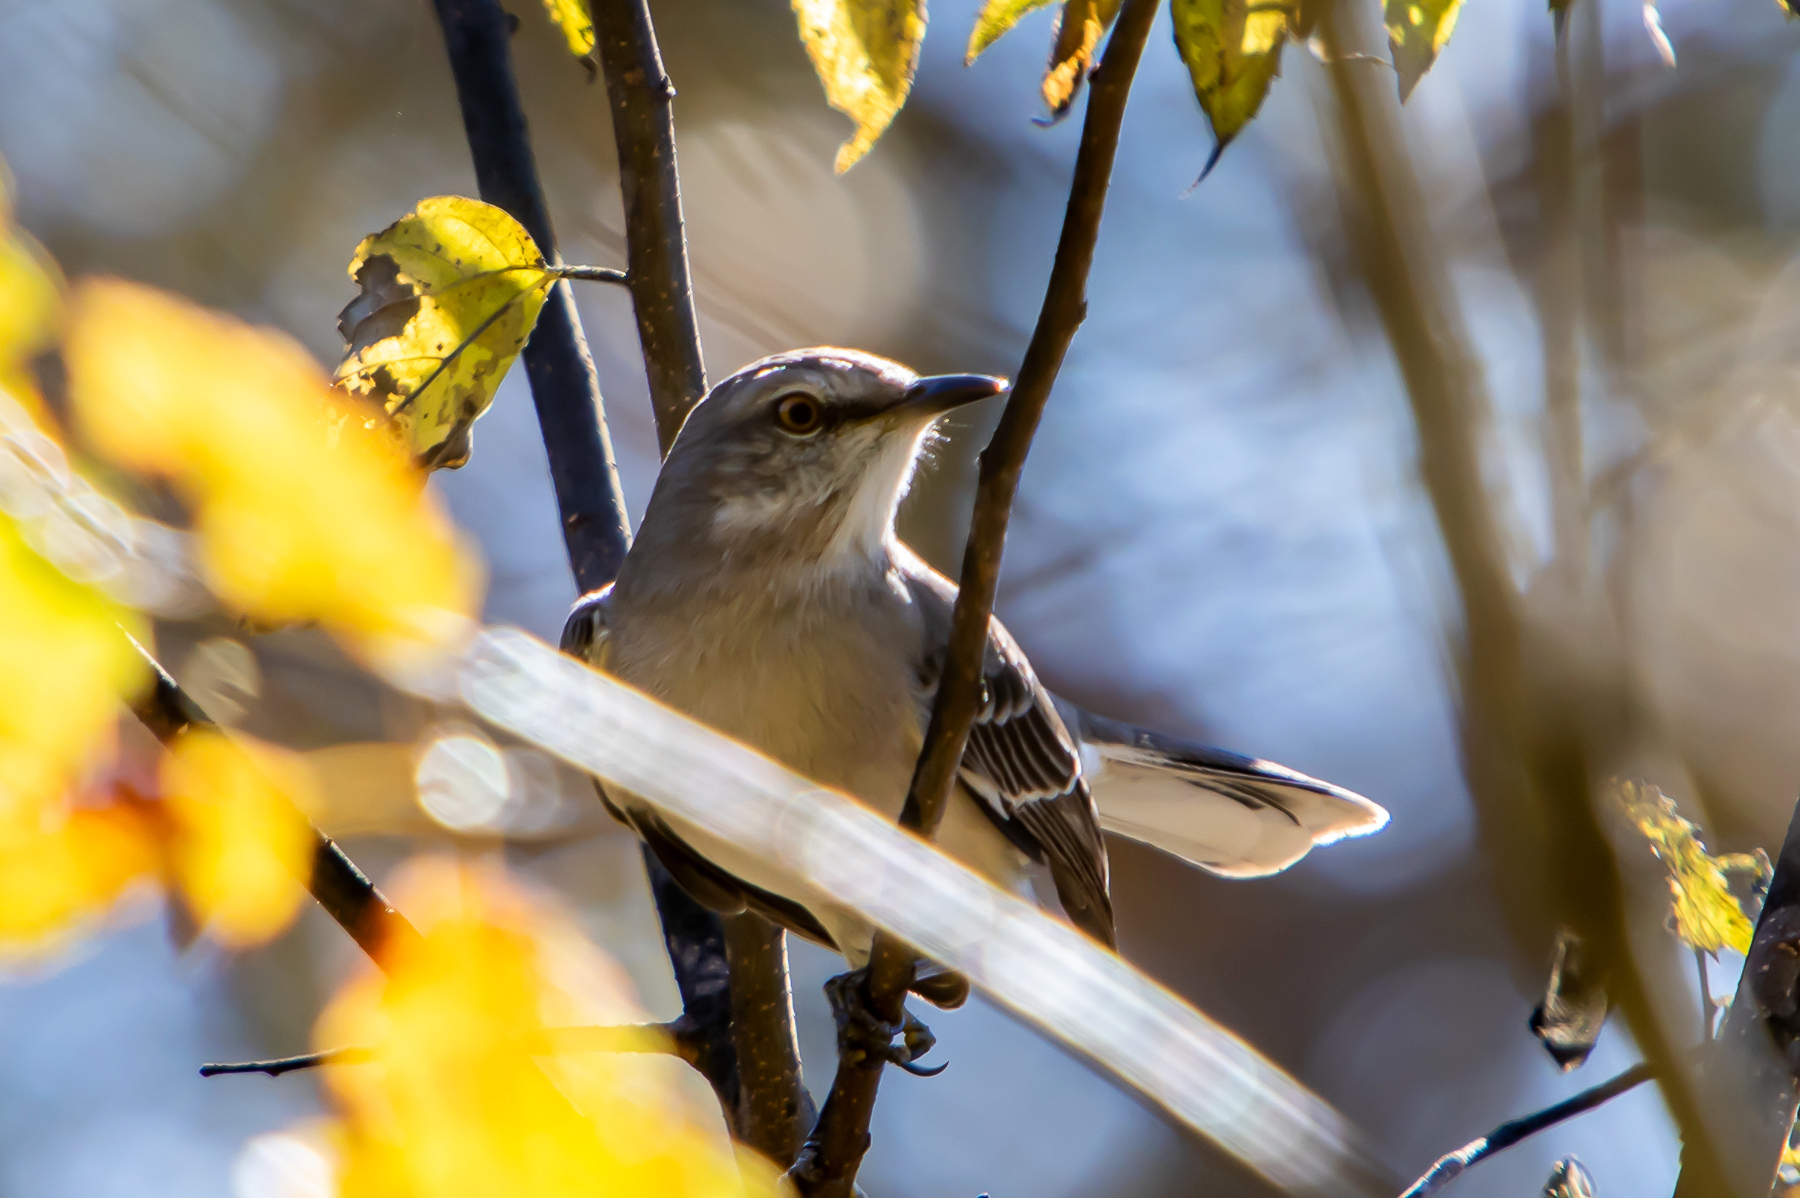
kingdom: Animalia
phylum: Chordata
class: Aves
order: Passeriformes
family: Mimidae
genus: Mimus
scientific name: Mimus polyglottos
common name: Northern mockingbird
